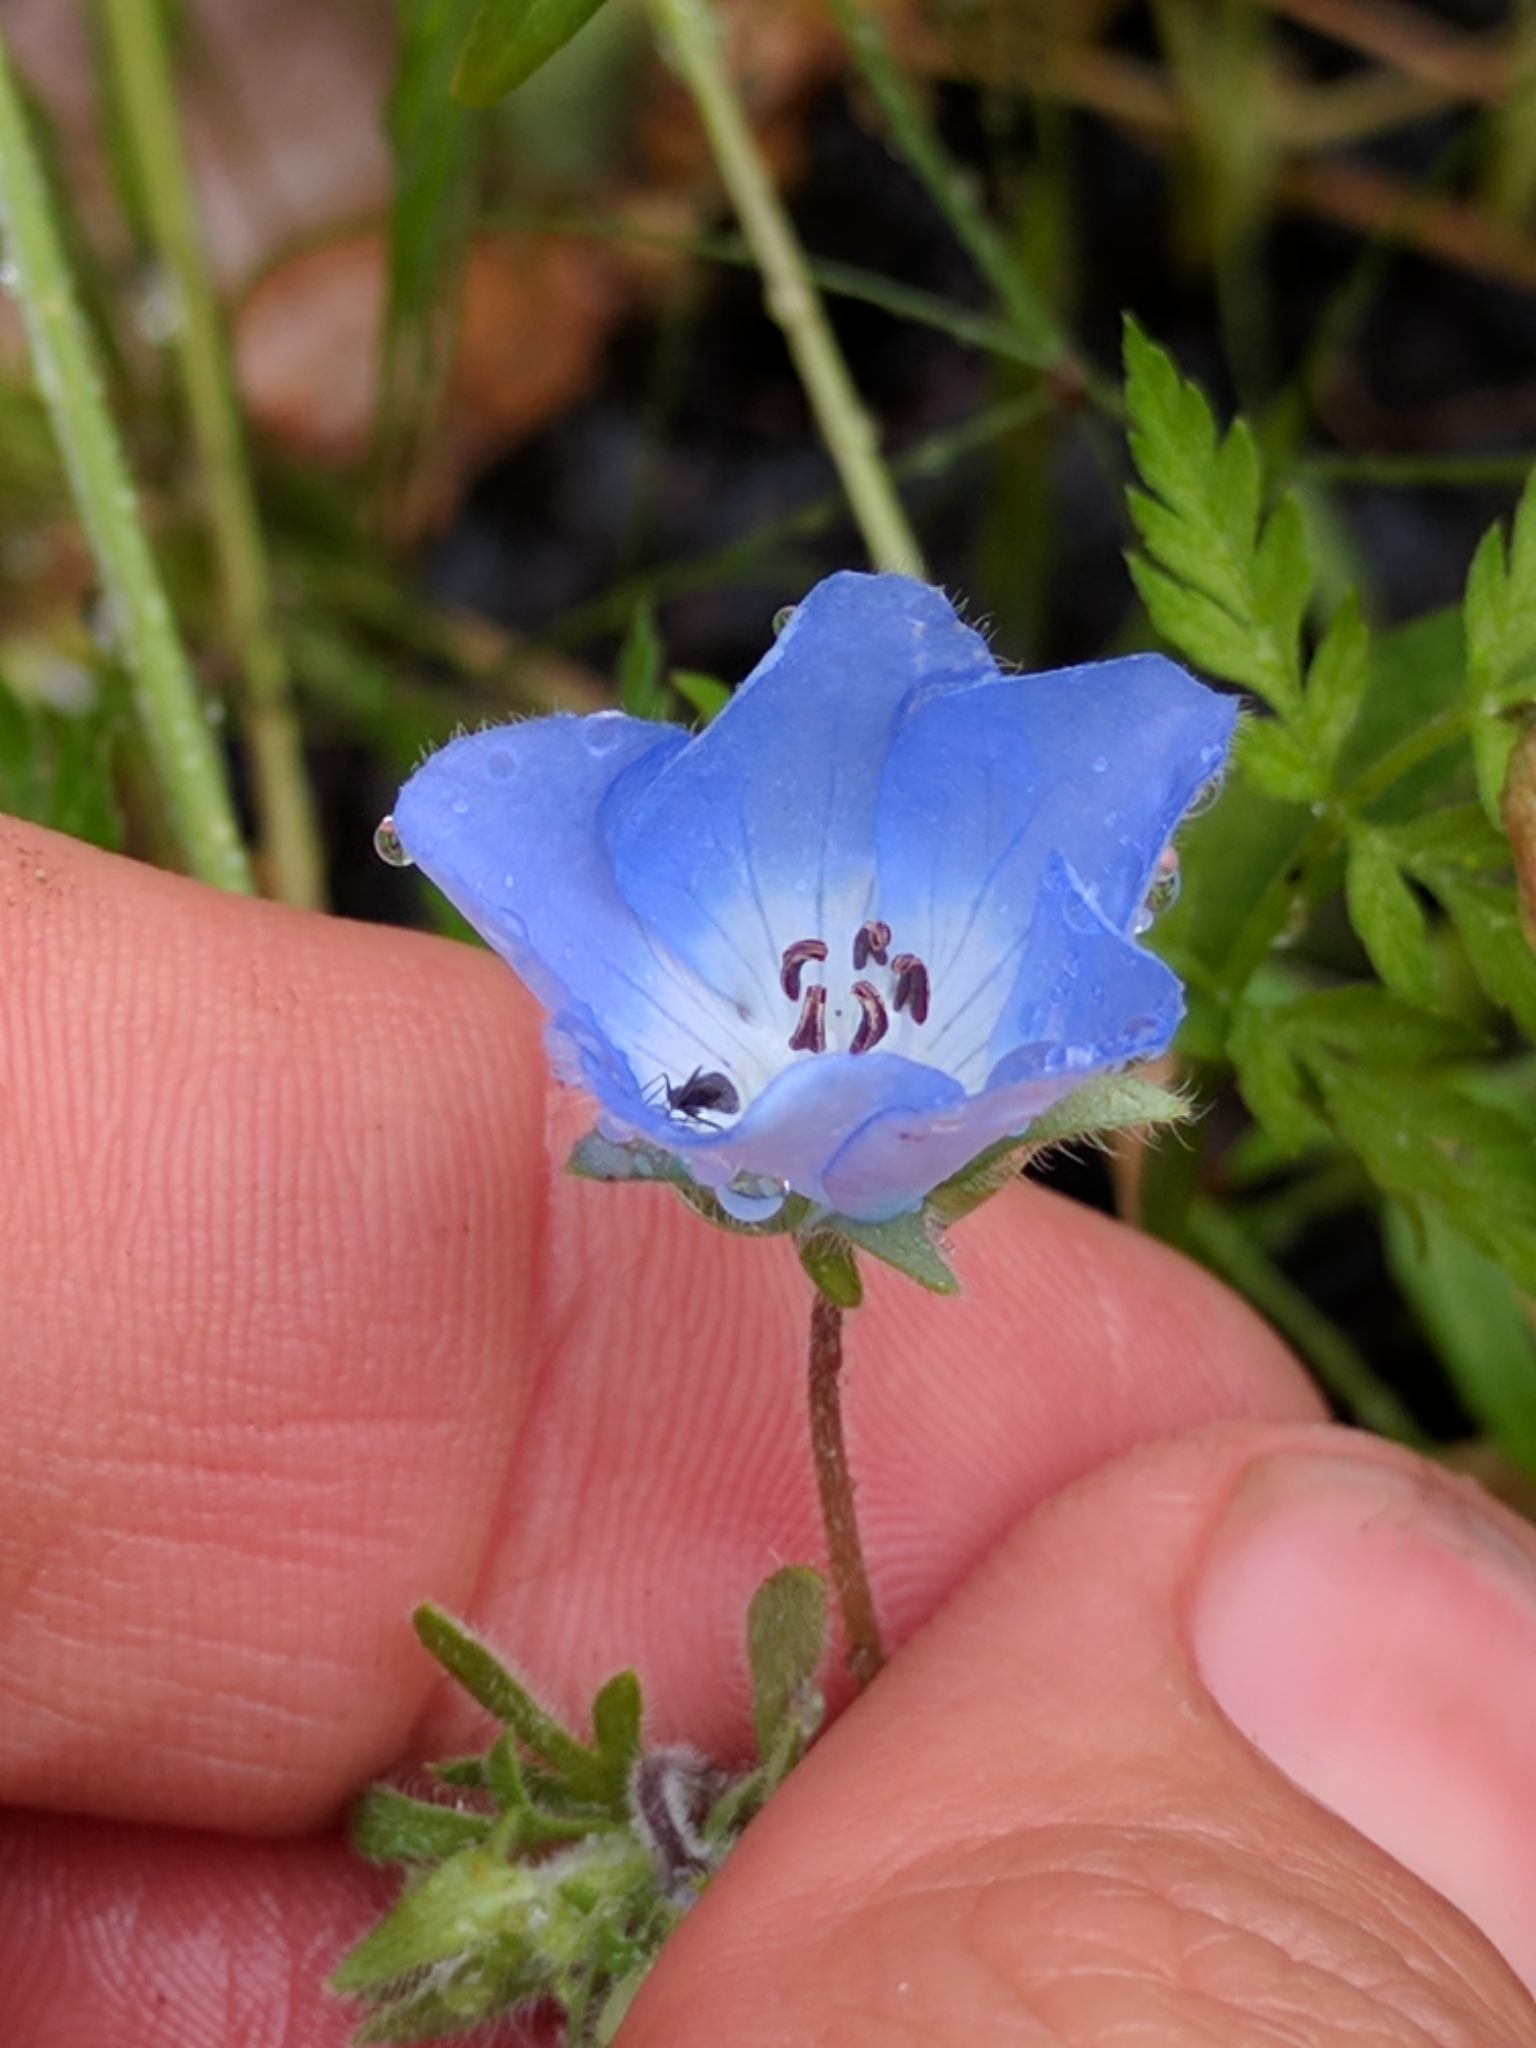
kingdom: Plantae
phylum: Tracheophyta
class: Magnoliopsida
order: Boraginales
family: Hydrophyllaceae
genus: Nemophila
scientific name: Nemophila menziesii
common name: Baby's-blue-eyes
